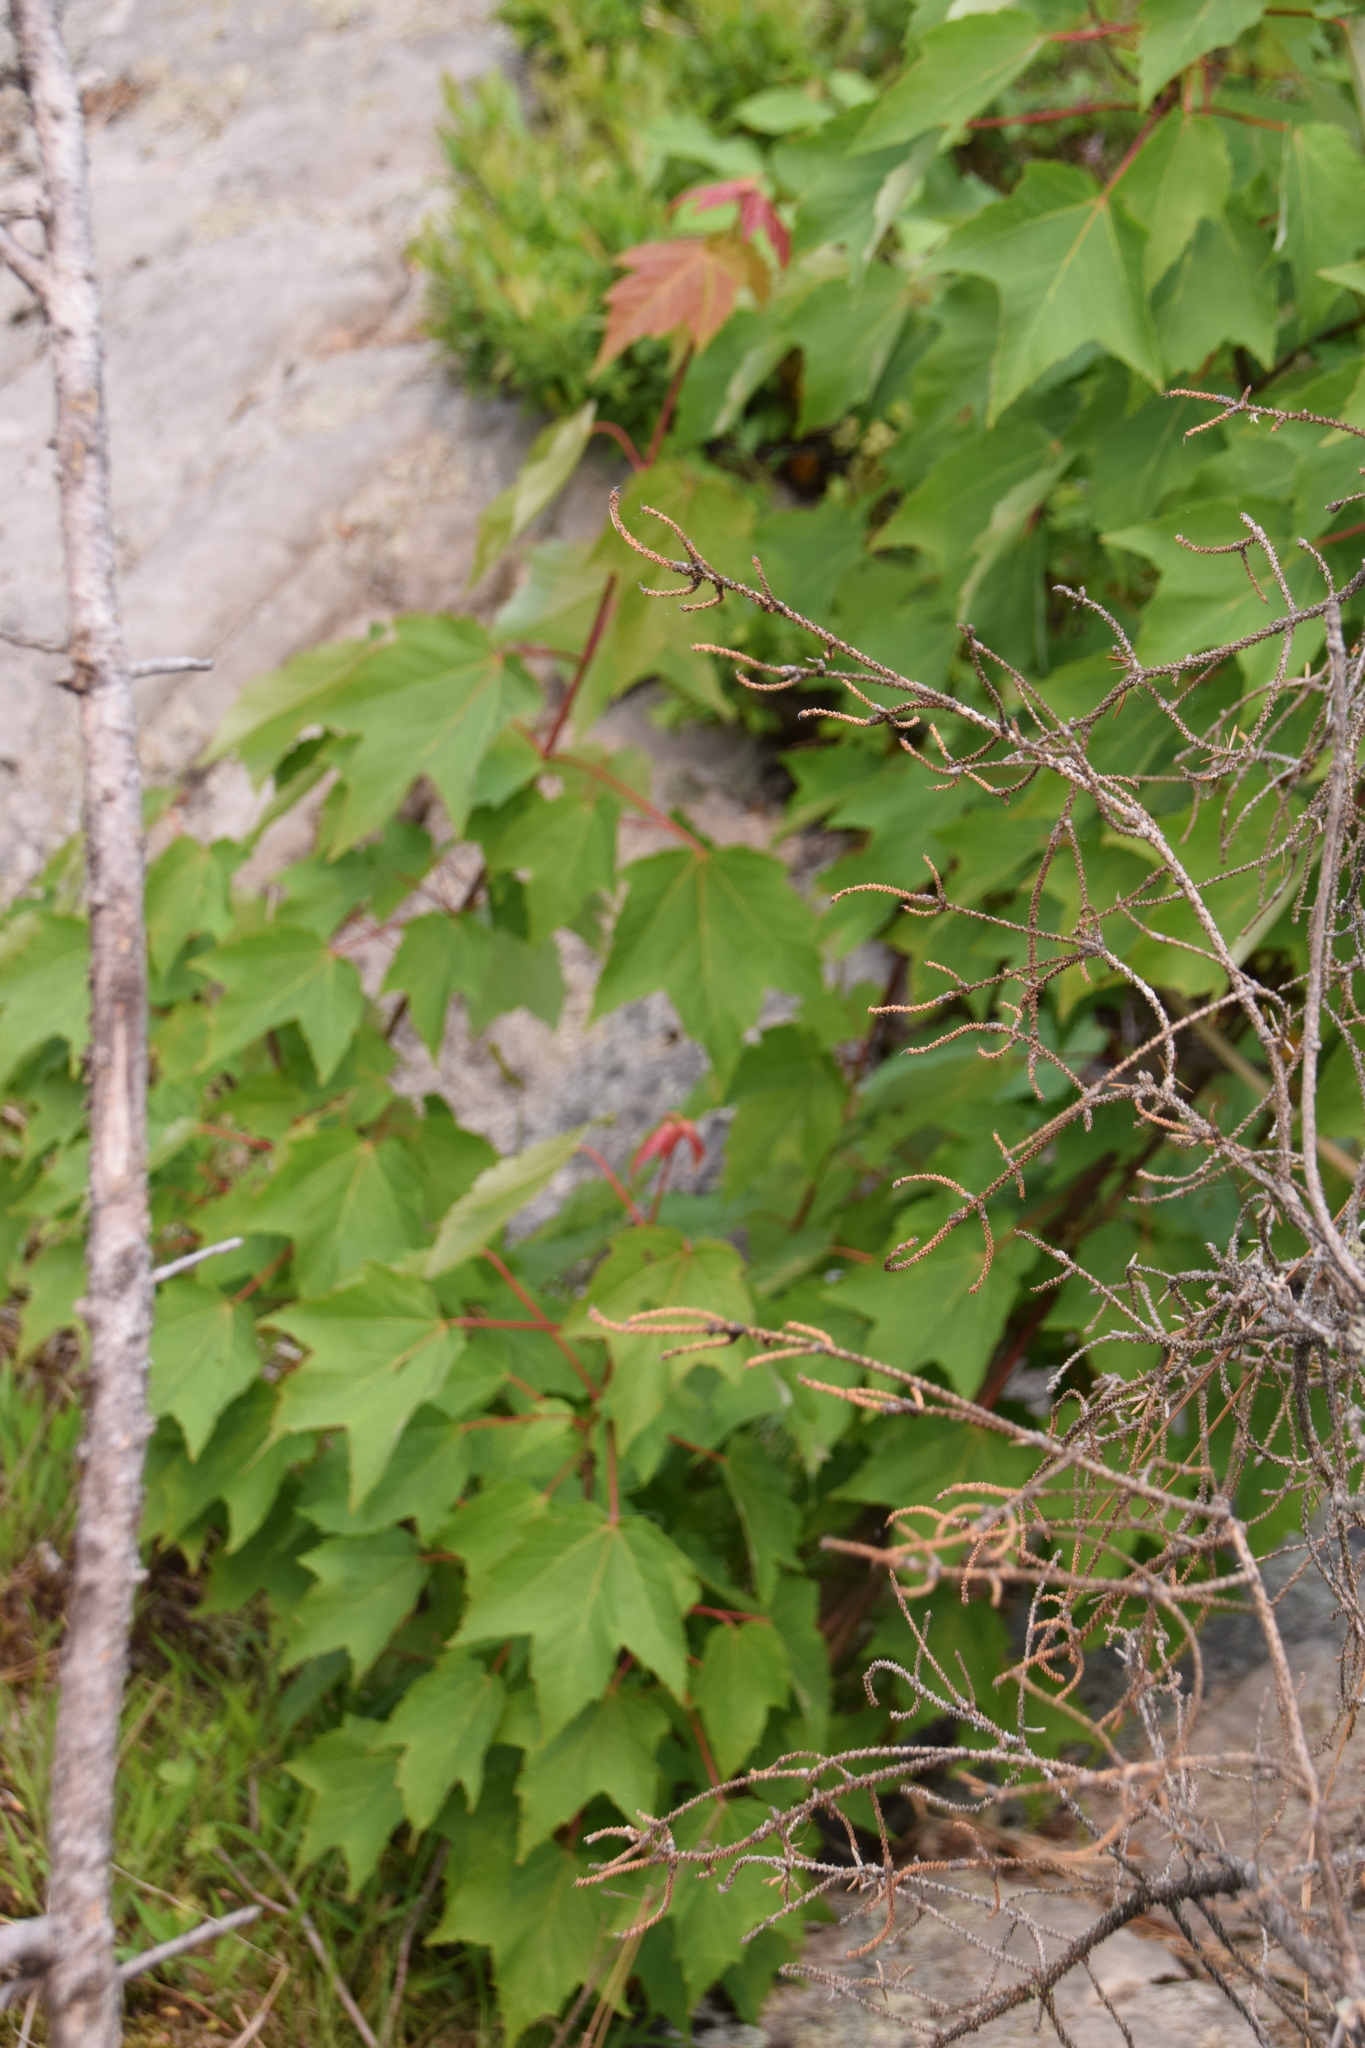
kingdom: Plantae
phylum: Tracheophyta
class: Magnoliopsida
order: Sapindales
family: Sapindaceae
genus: Acer
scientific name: Acer rubrum
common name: Red maple
